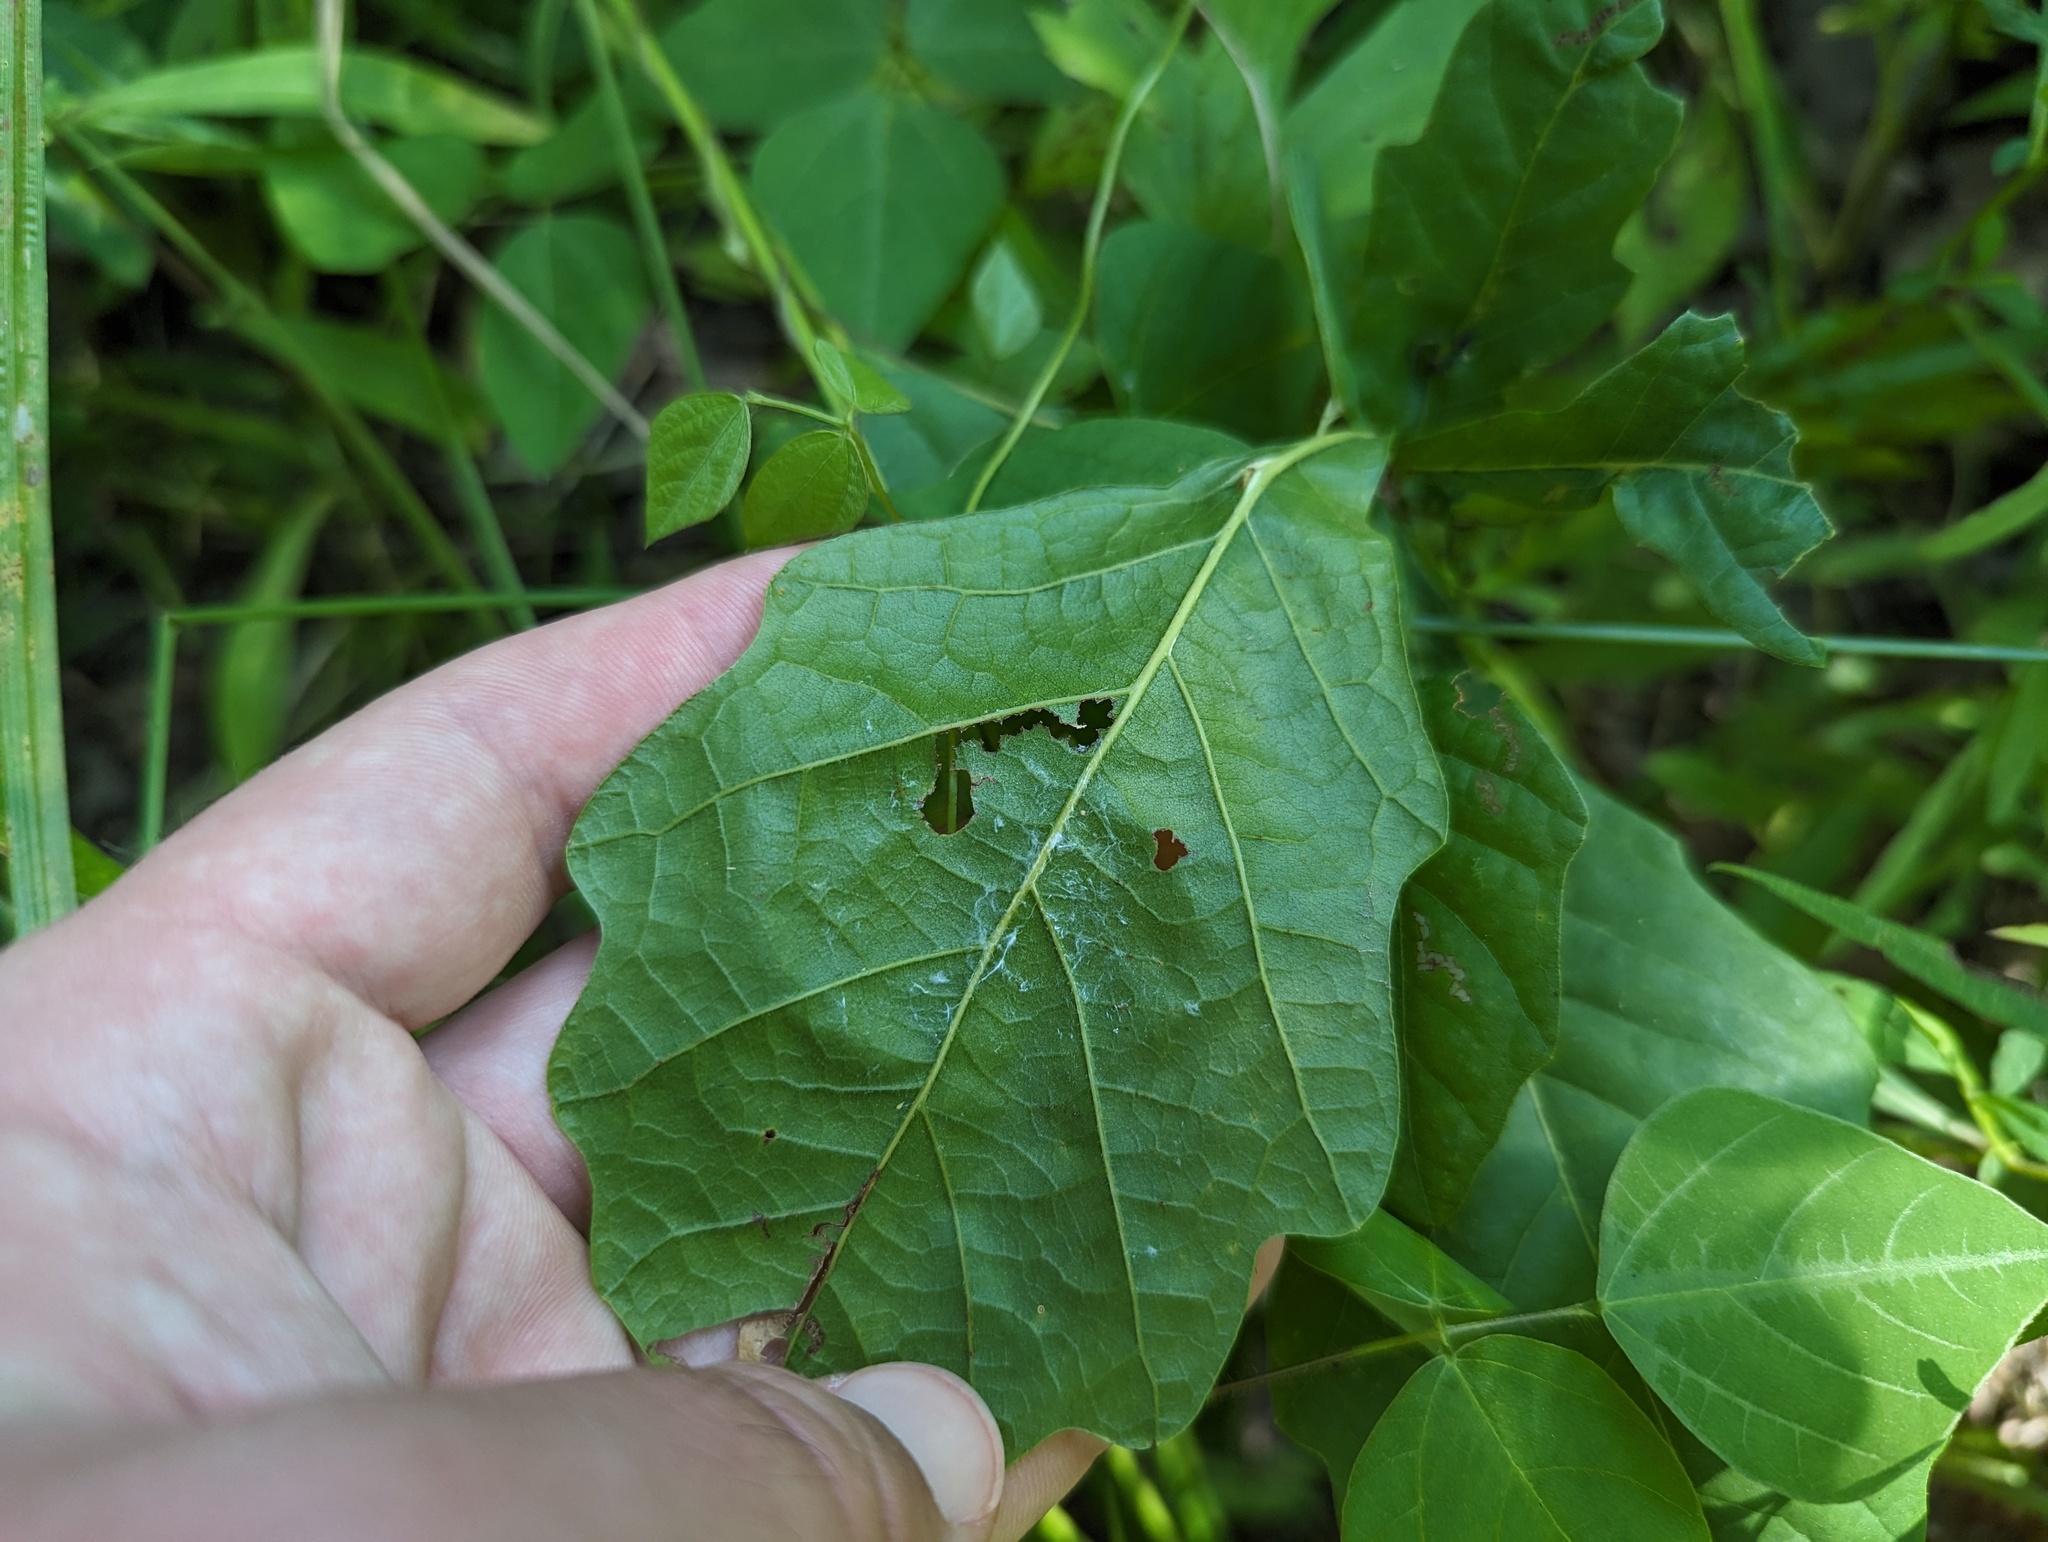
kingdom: Plantae
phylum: Tracheophyta
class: Magnoliopsida
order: Fagales
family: Fagaceae
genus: Quercus
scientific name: Quercus bicolor
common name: Swamp white oak
